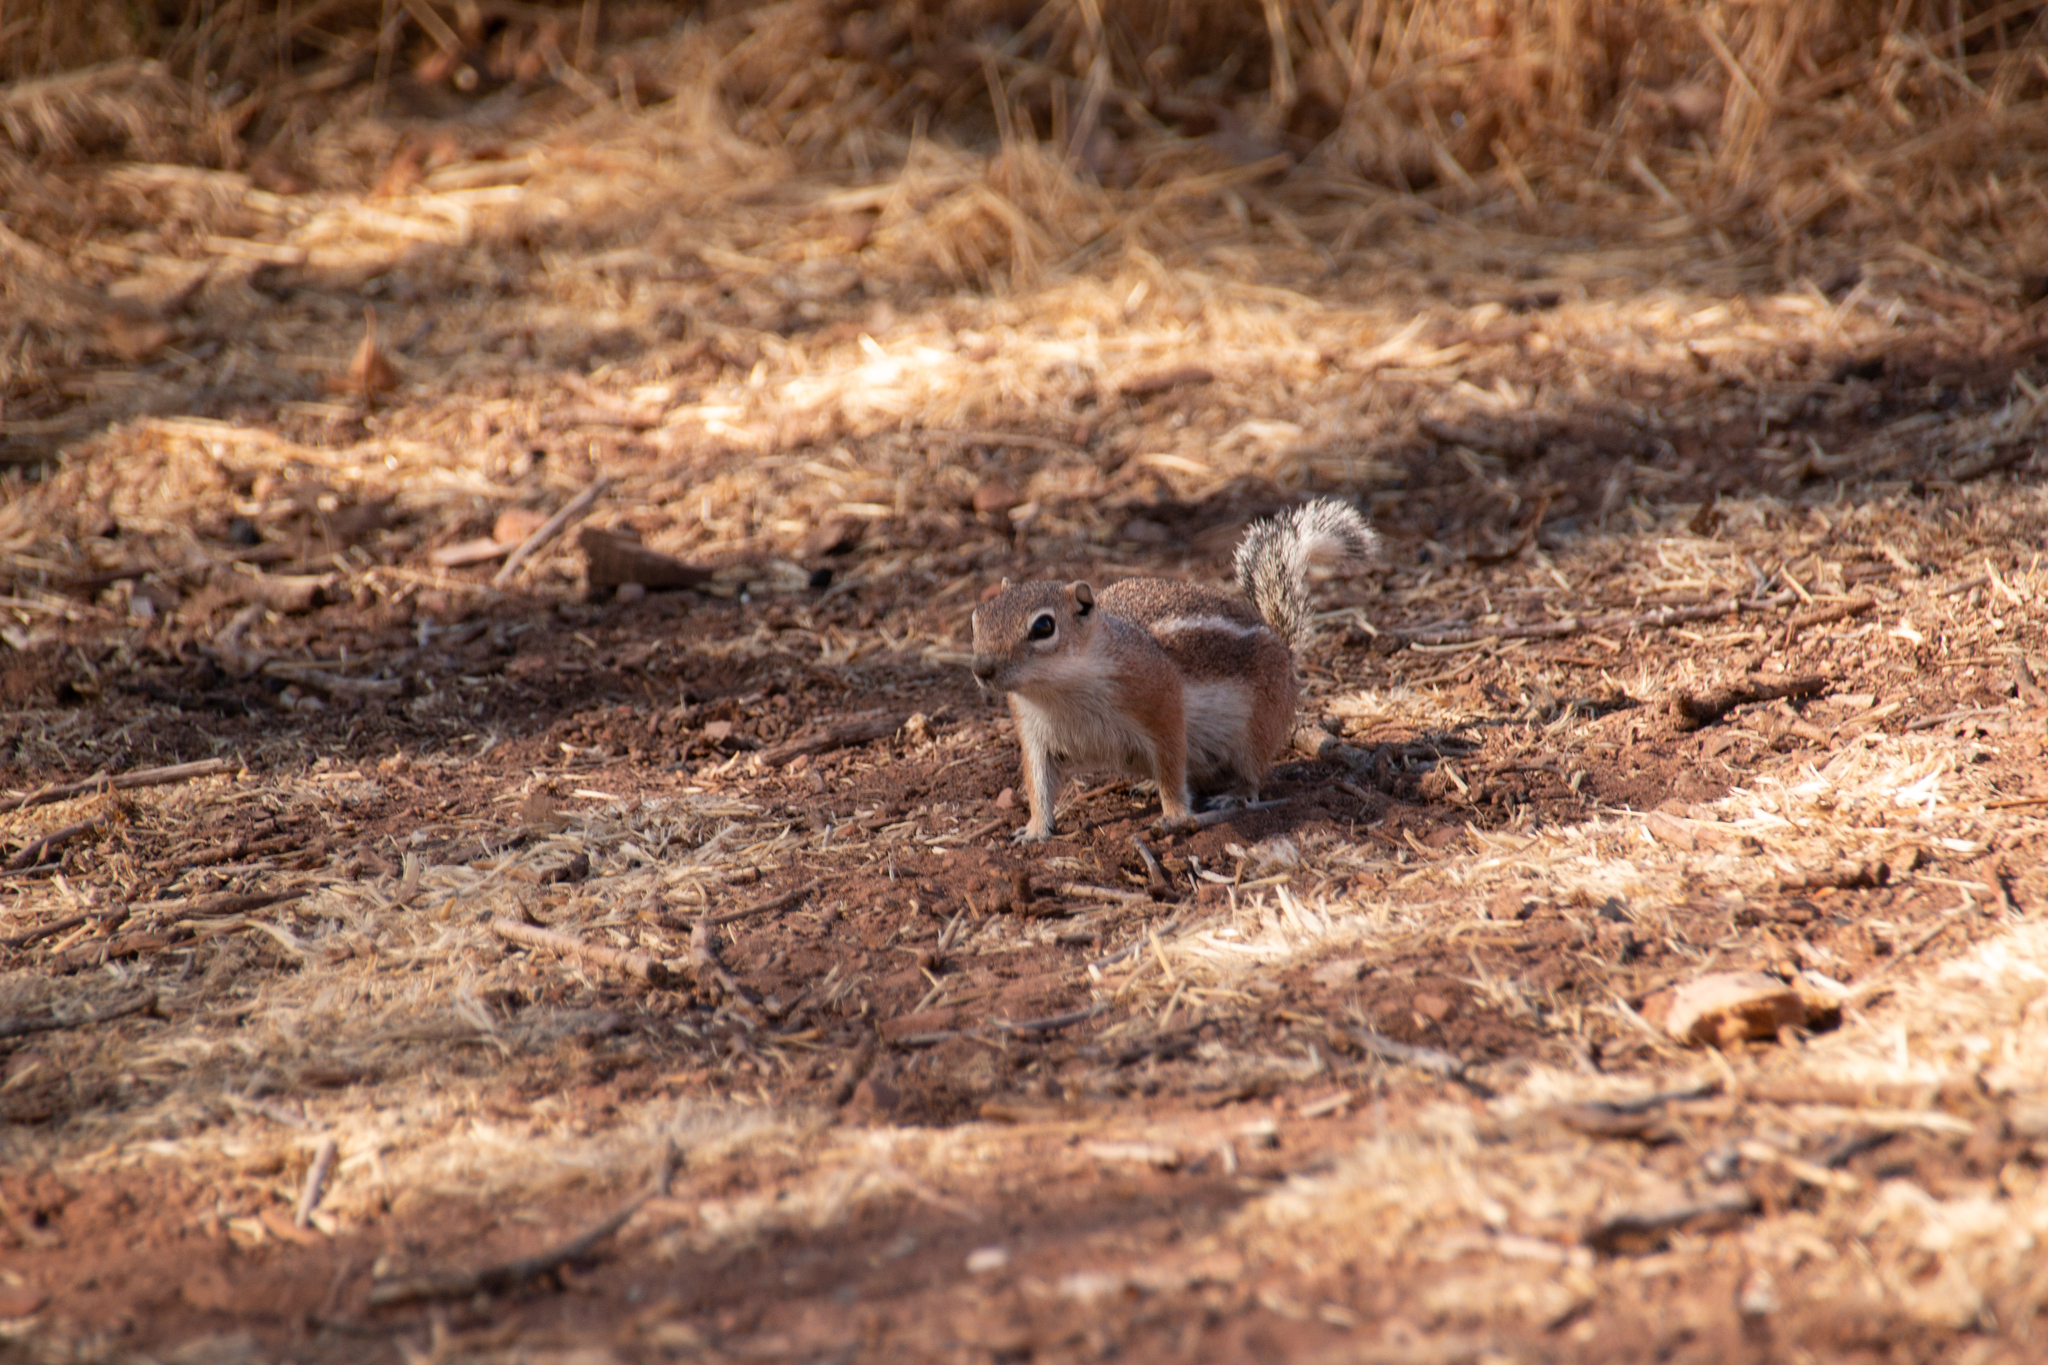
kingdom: Animalia
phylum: Chordata
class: Mammalia
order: Rodentia
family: Sciuridae
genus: Ammospermophilus
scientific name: Ammospermophilus leucurus
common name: White-tailed antelope squirrel
